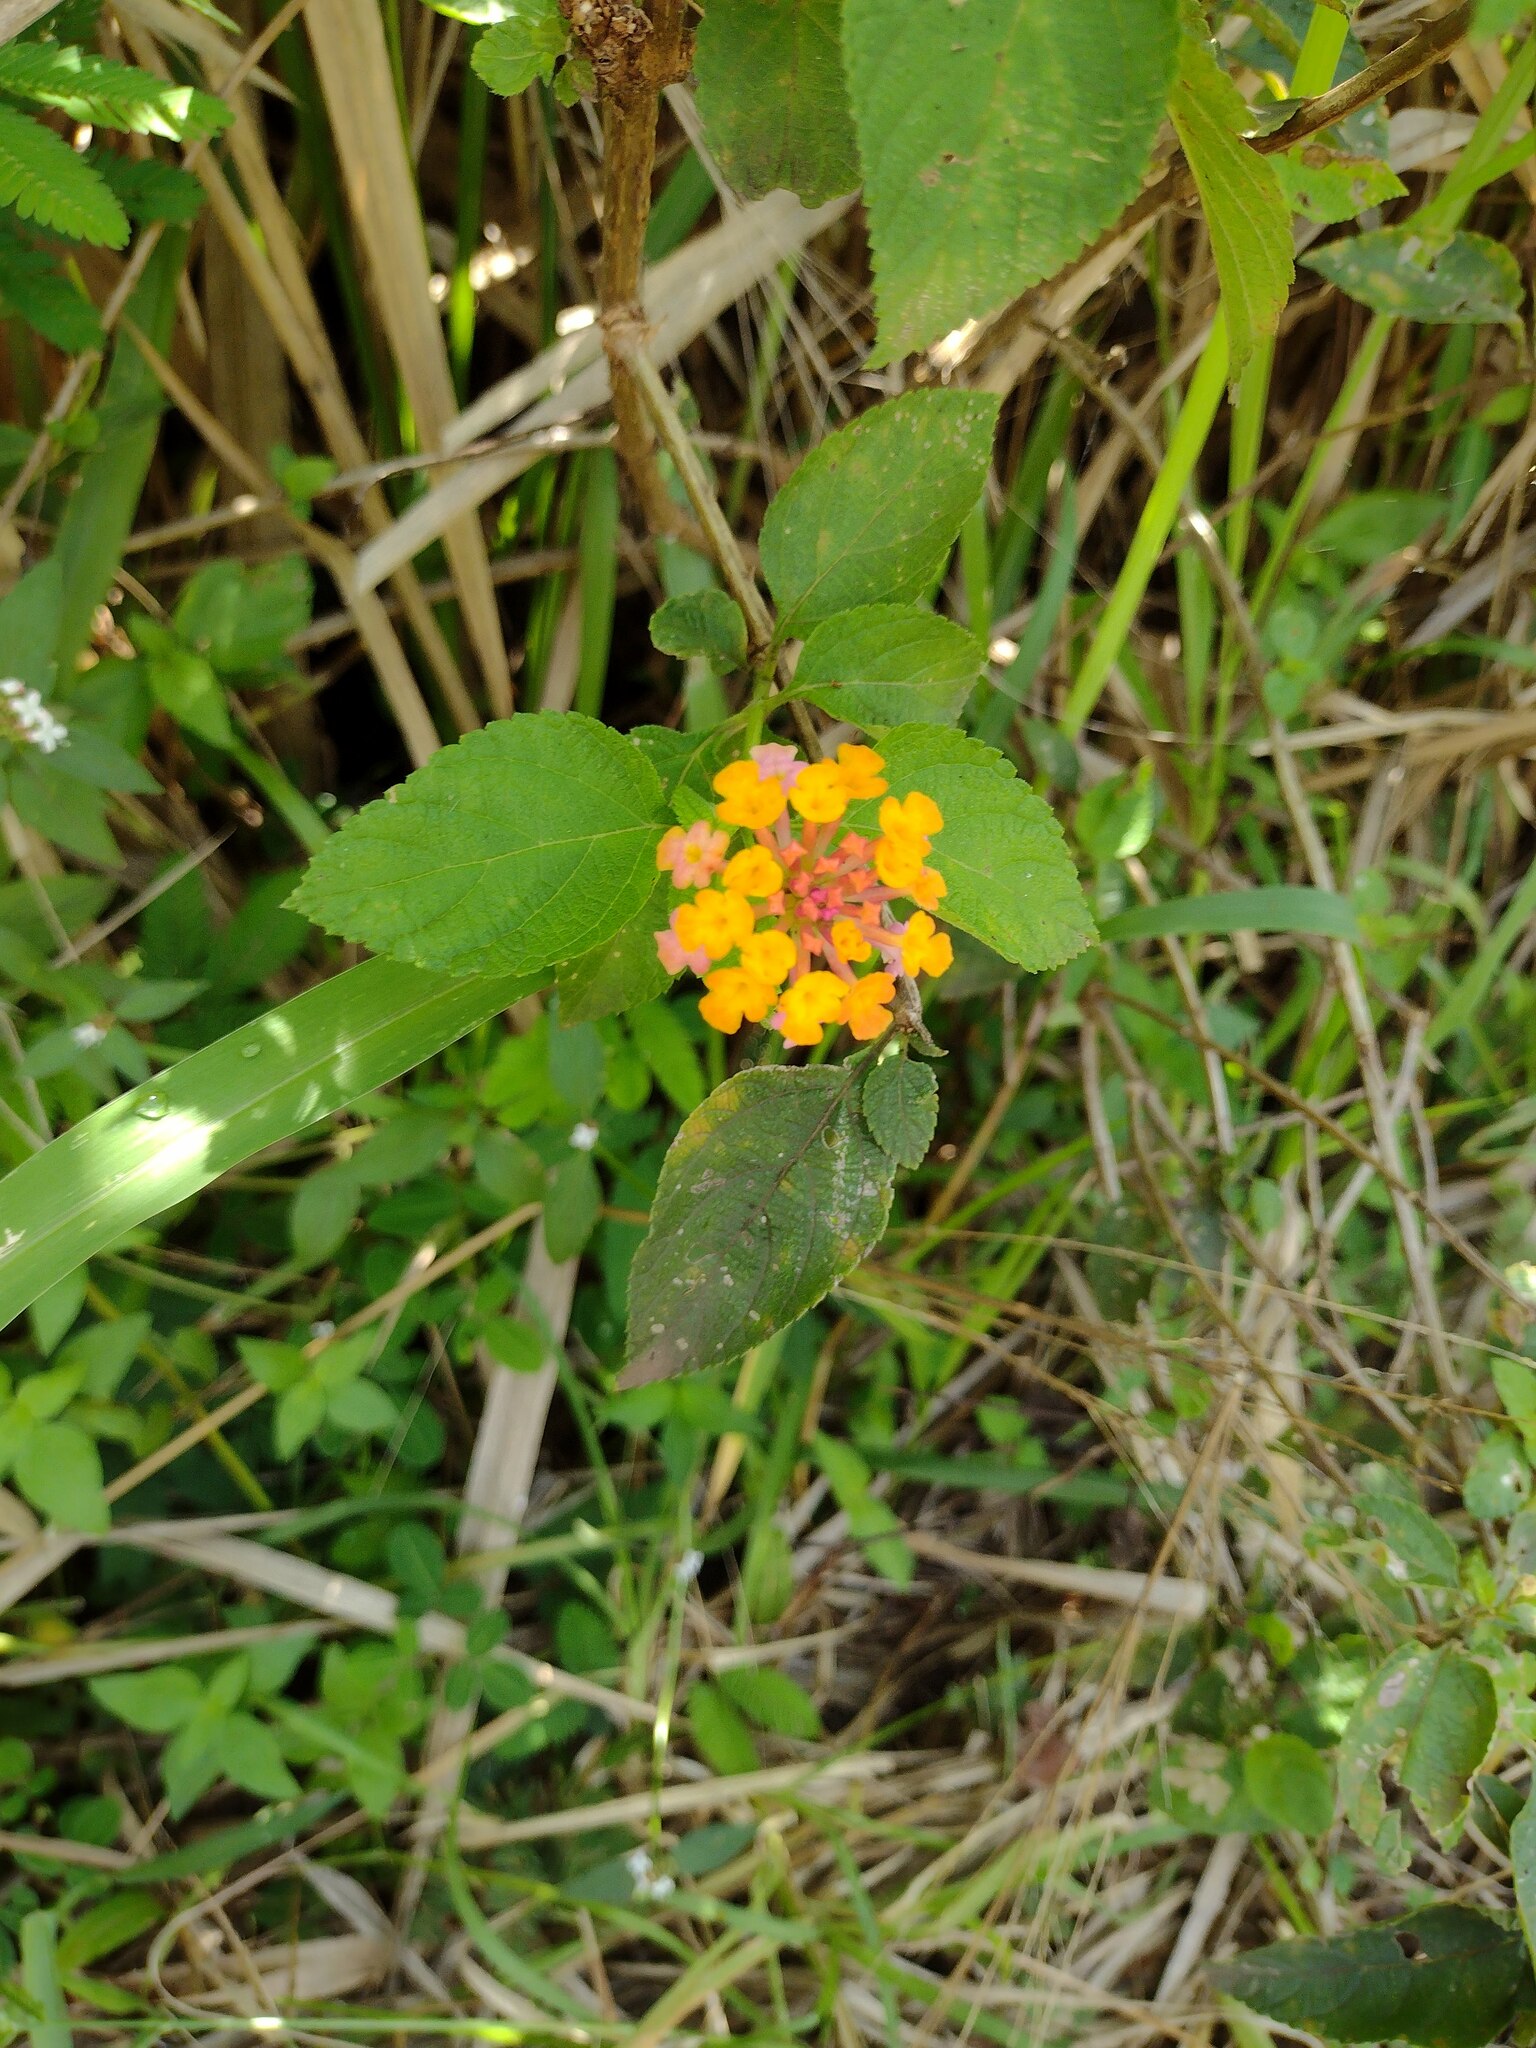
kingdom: Plantae
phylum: Tracheophyta
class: Magnoliopsida
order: Lamiales
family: Verbenaceae
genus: Lantana
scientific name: Lantana camara
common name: Lantana
